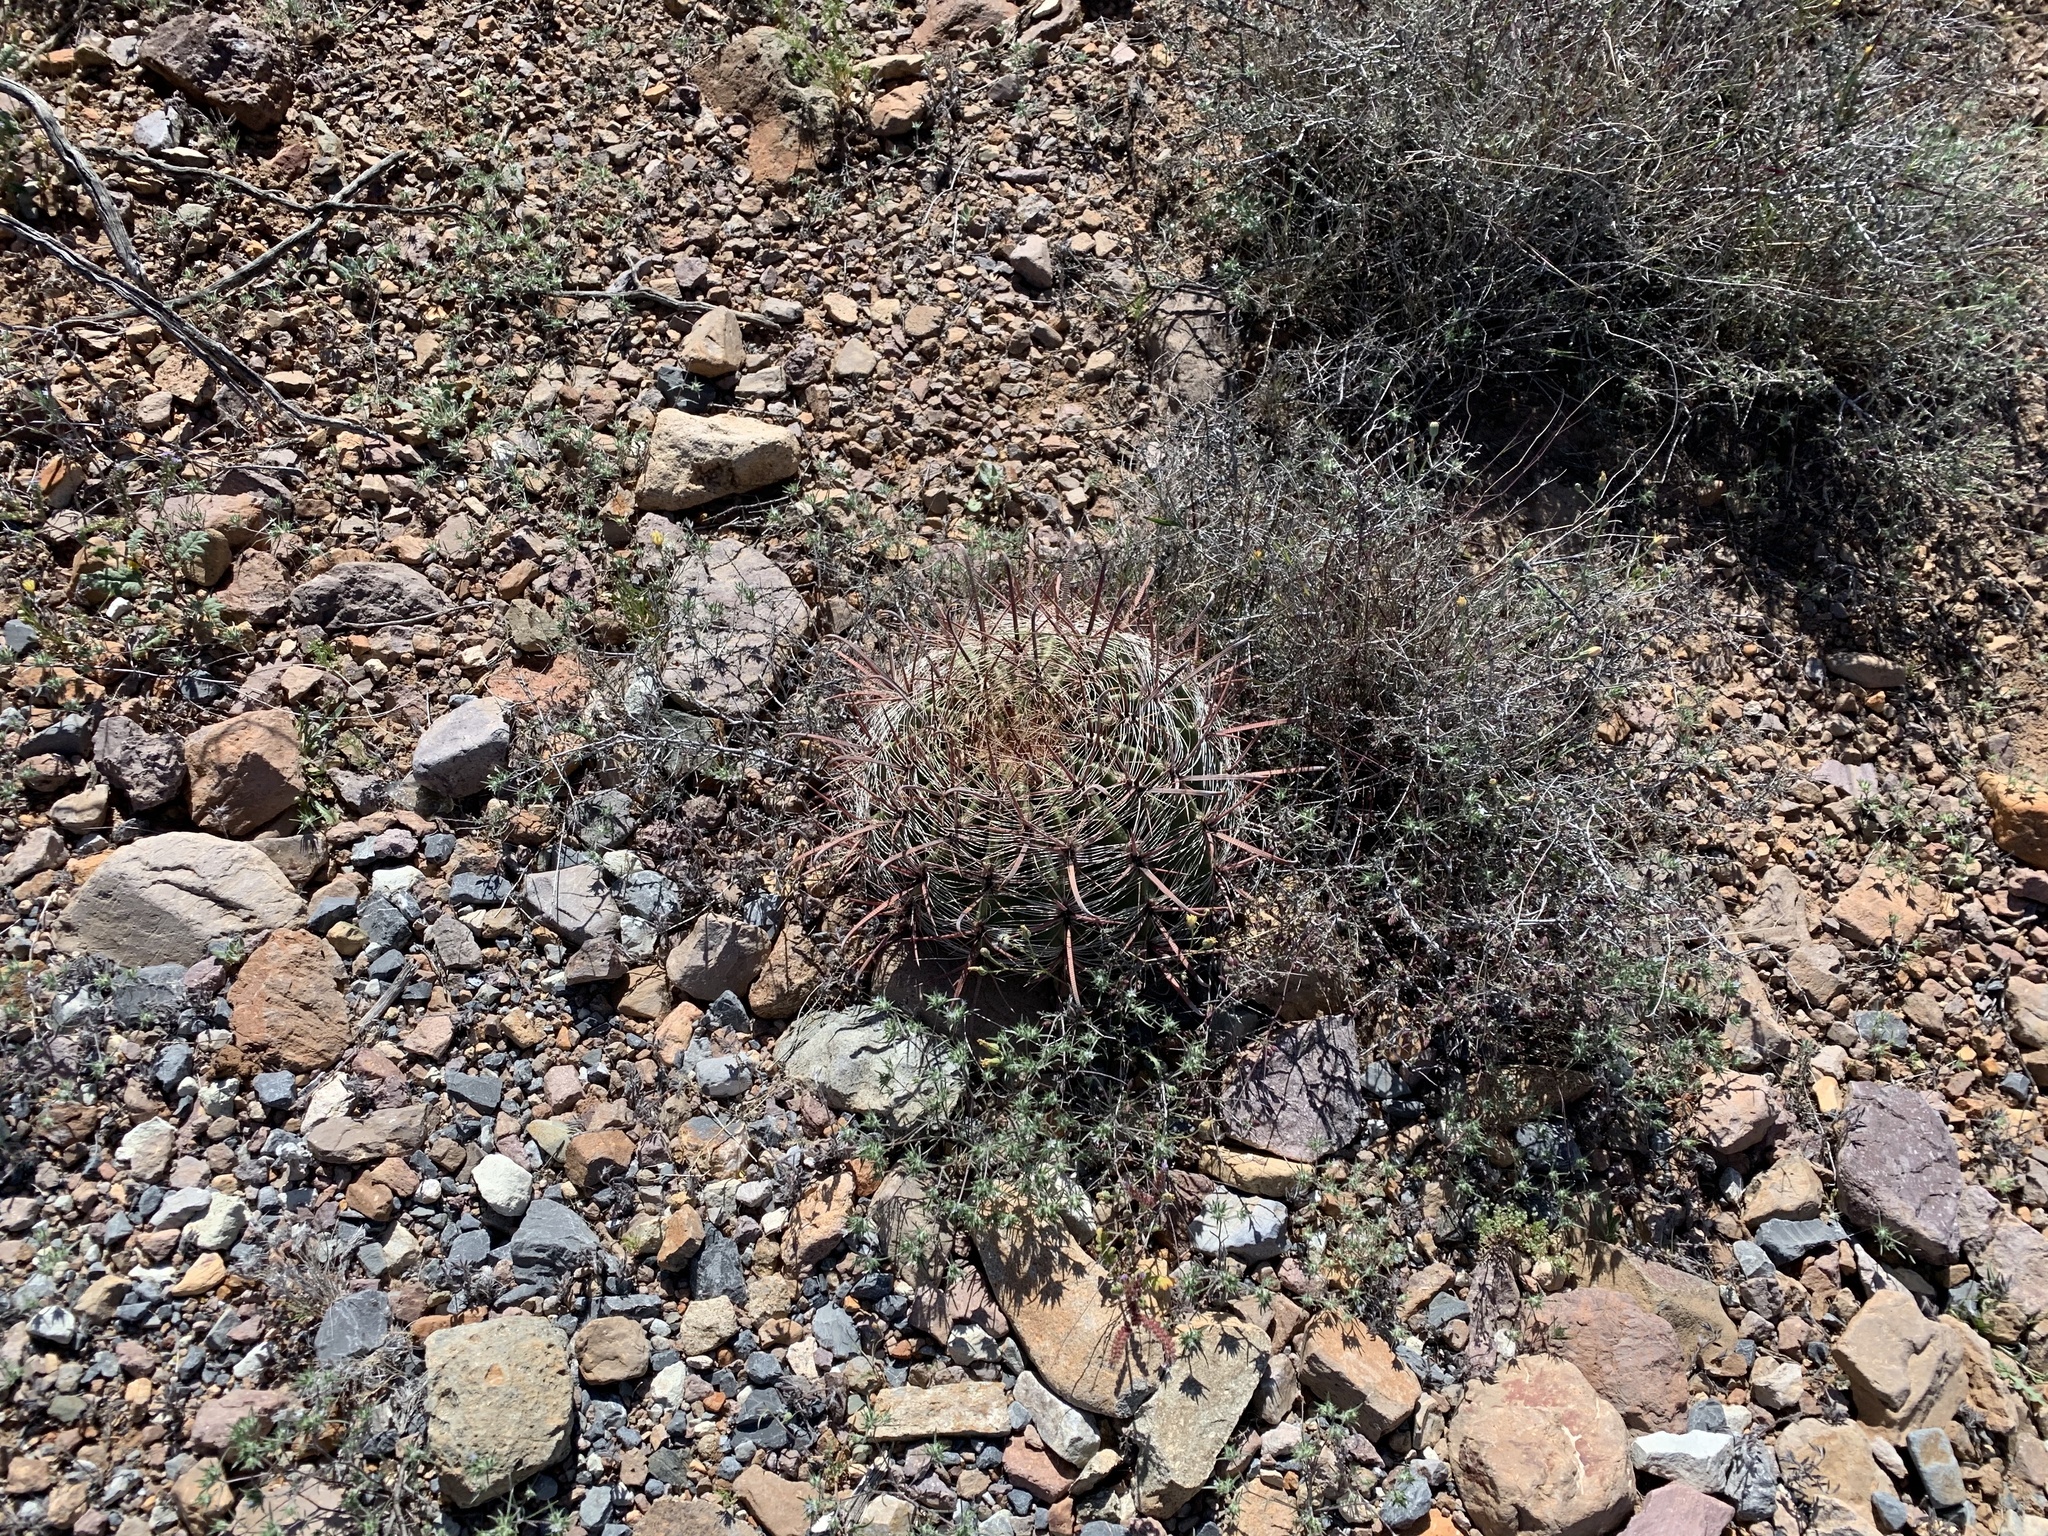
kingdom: Plantae
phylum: Tracheophyta
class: Magnoliopsida
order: Caryophyllales
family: Cactaceae
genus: Ferocactus
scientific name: Ferocactus wislizeni
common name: Candy barrel cactus
